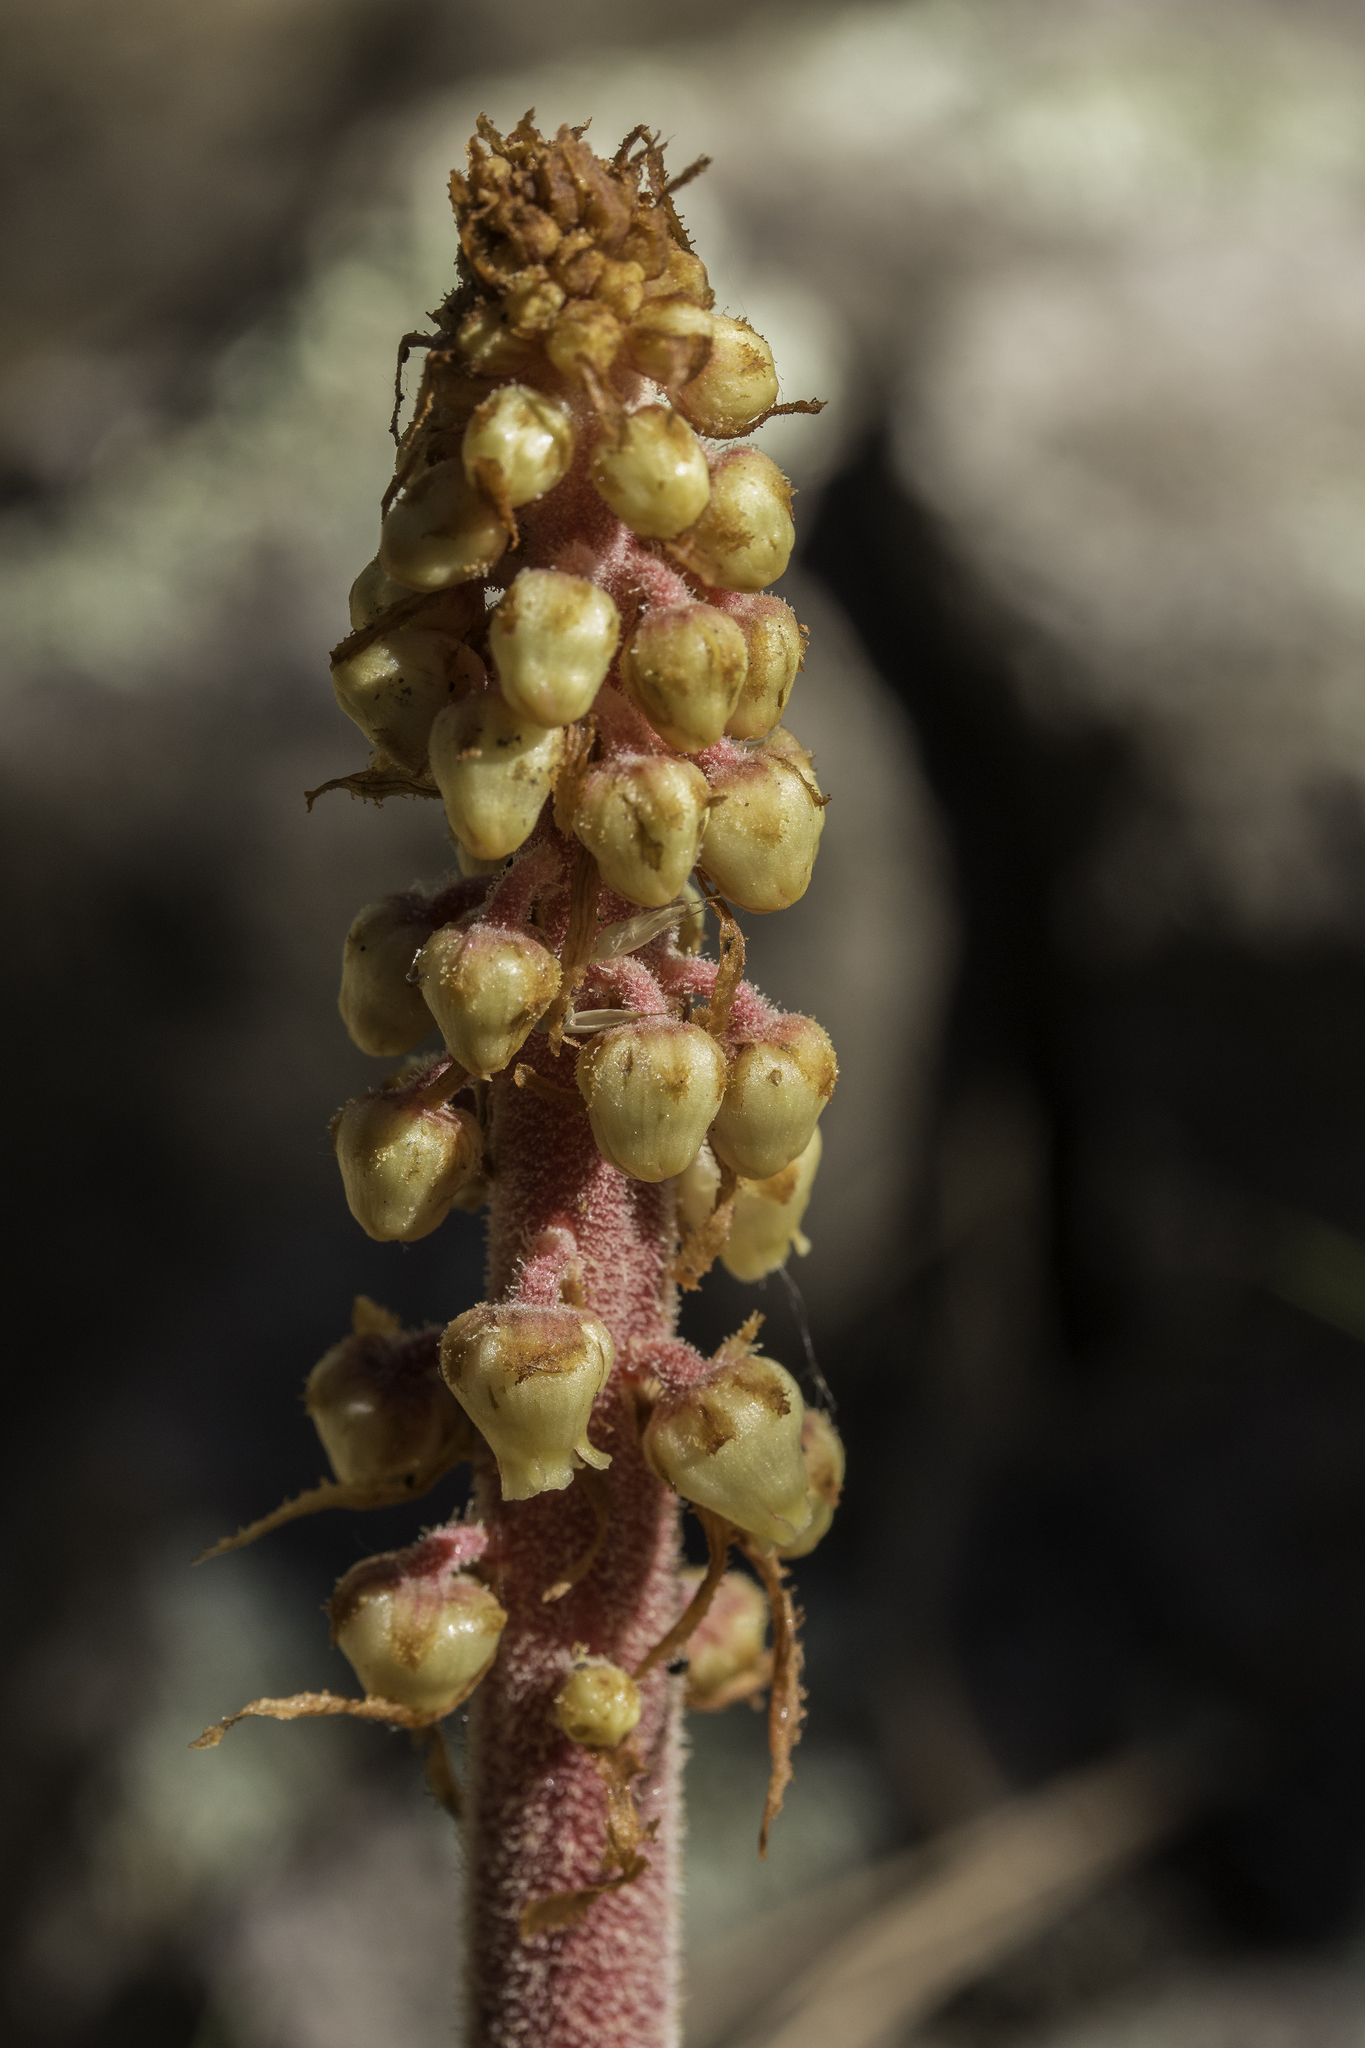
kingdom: Plantae
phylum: Tracheophyta
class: Magnoliopsida
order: Ericales
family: Ericaceae
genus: Pterospora
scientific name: Pterospora andromedea
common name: Giant bird's-nest
